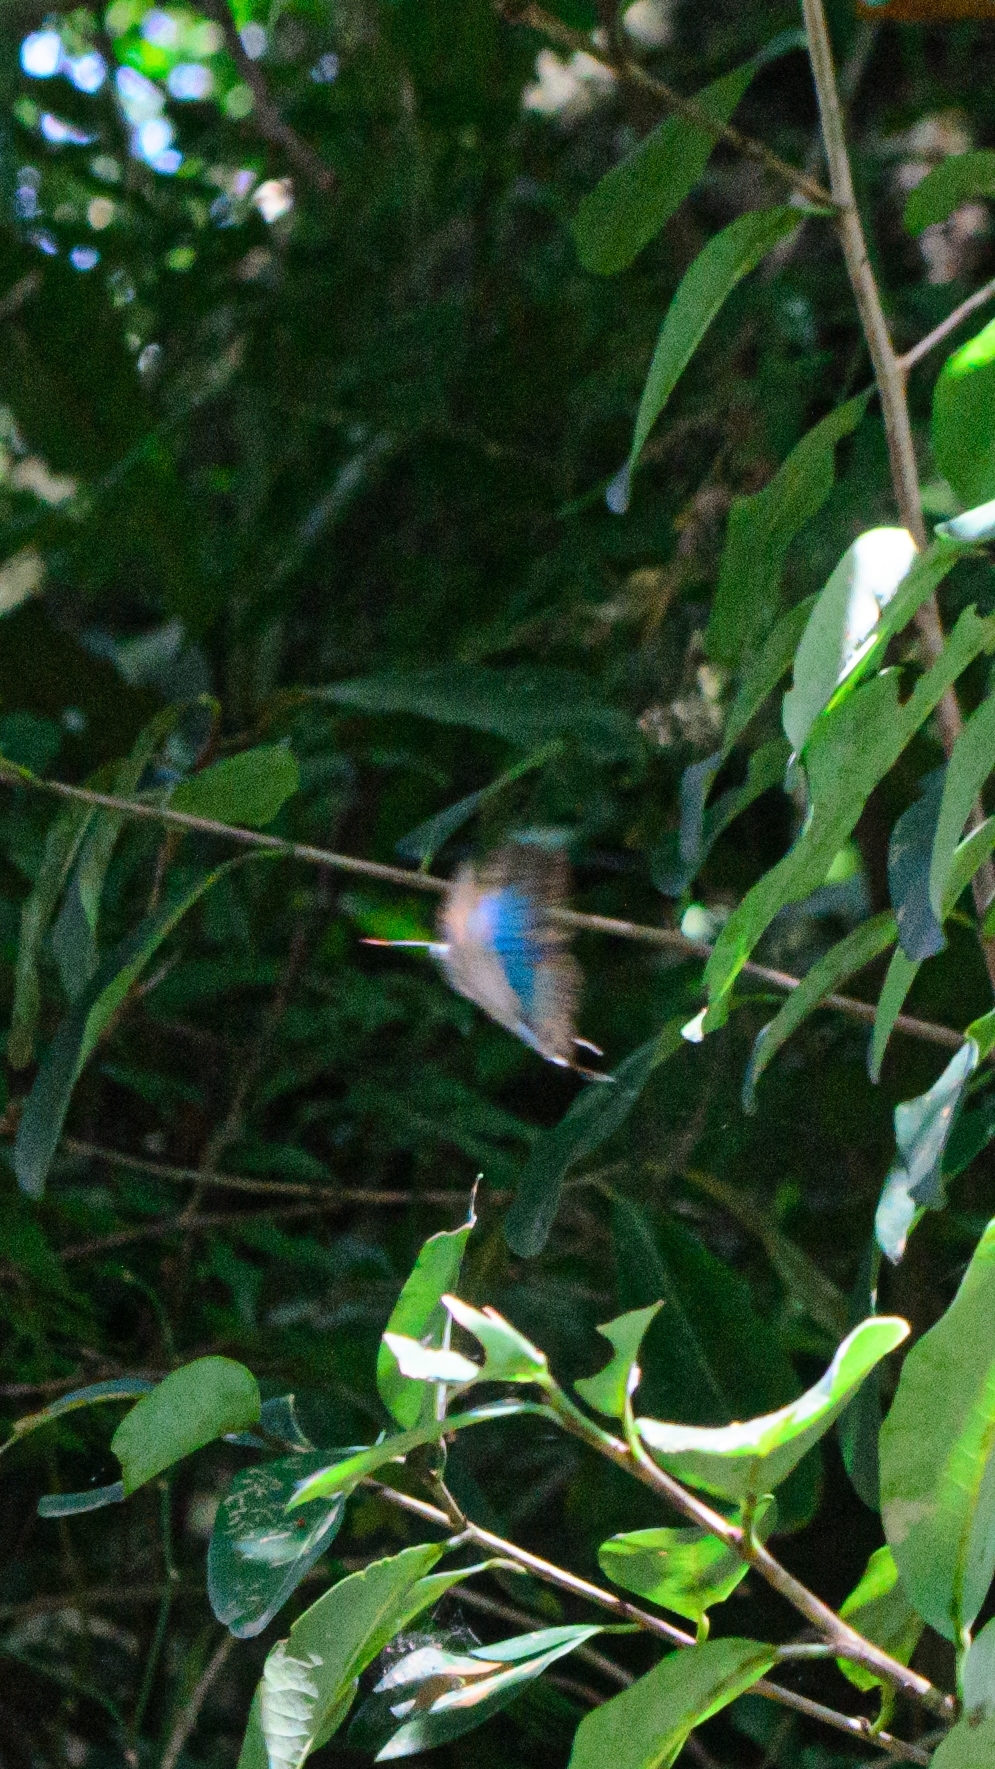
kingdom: Animalia
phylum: Arthropoda
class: Insecta
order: Lepidoptera
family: Lycaenidae
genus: Pseudolycaena
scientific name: Pseudolycaena marsyas
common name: Marsyas hairstreak
